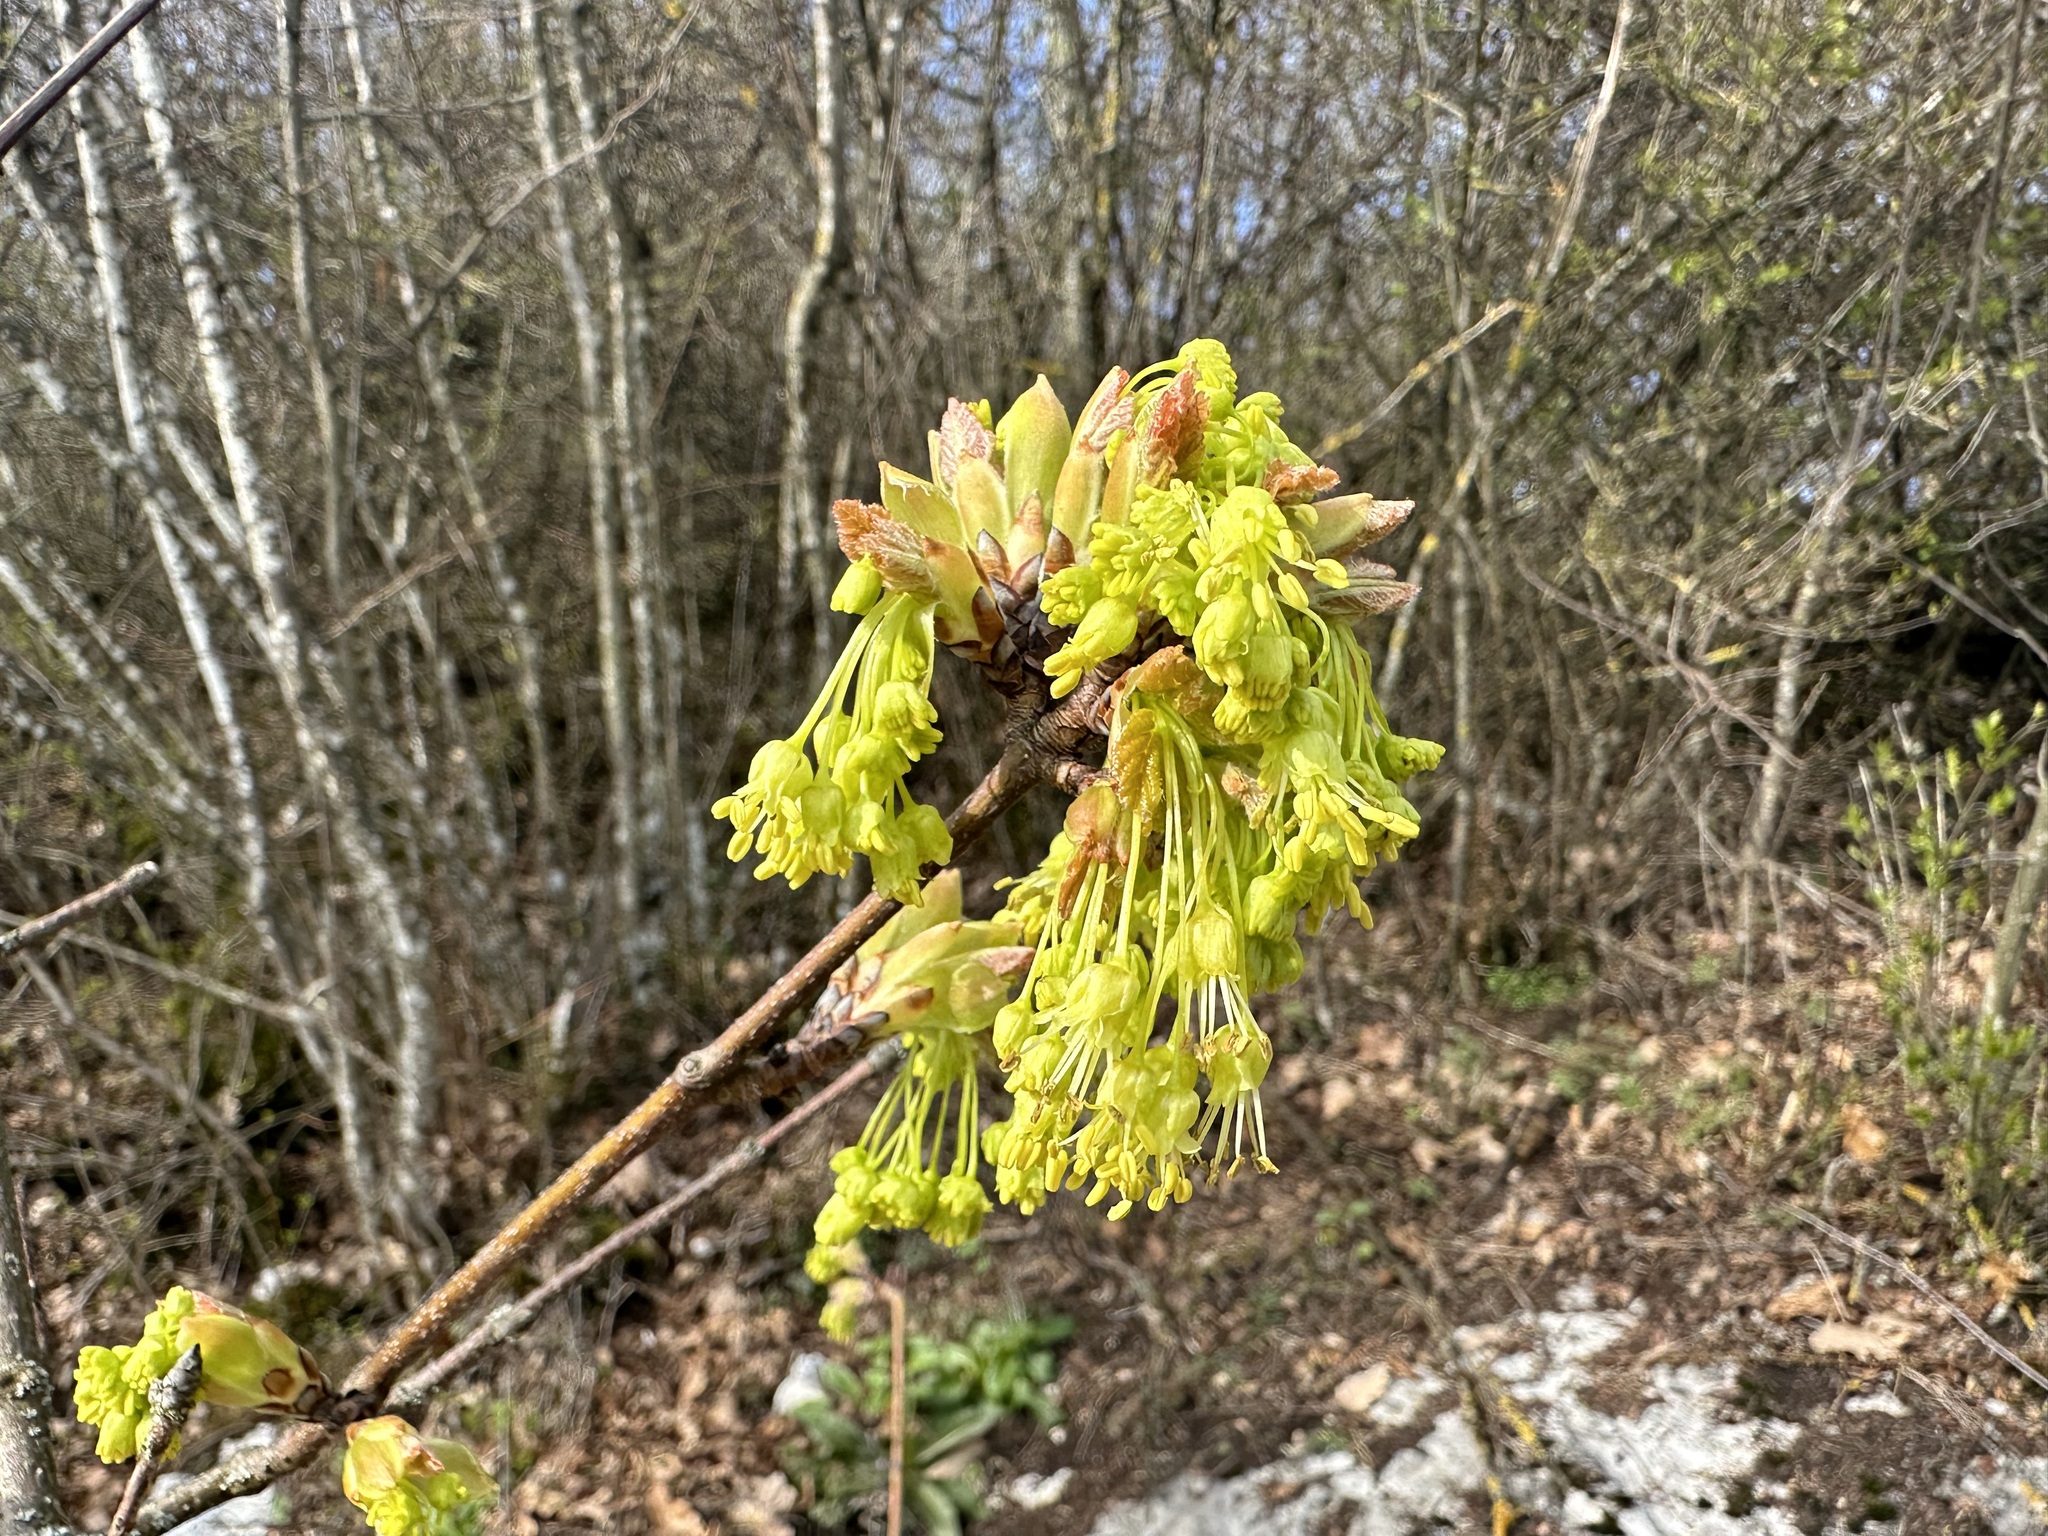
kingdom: Plantae
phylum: Tracheophyta
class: Magnoliopsida
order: Sapindales
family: Sapindaceae
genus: Acer
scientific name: Acer opalus
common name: Italian maple
